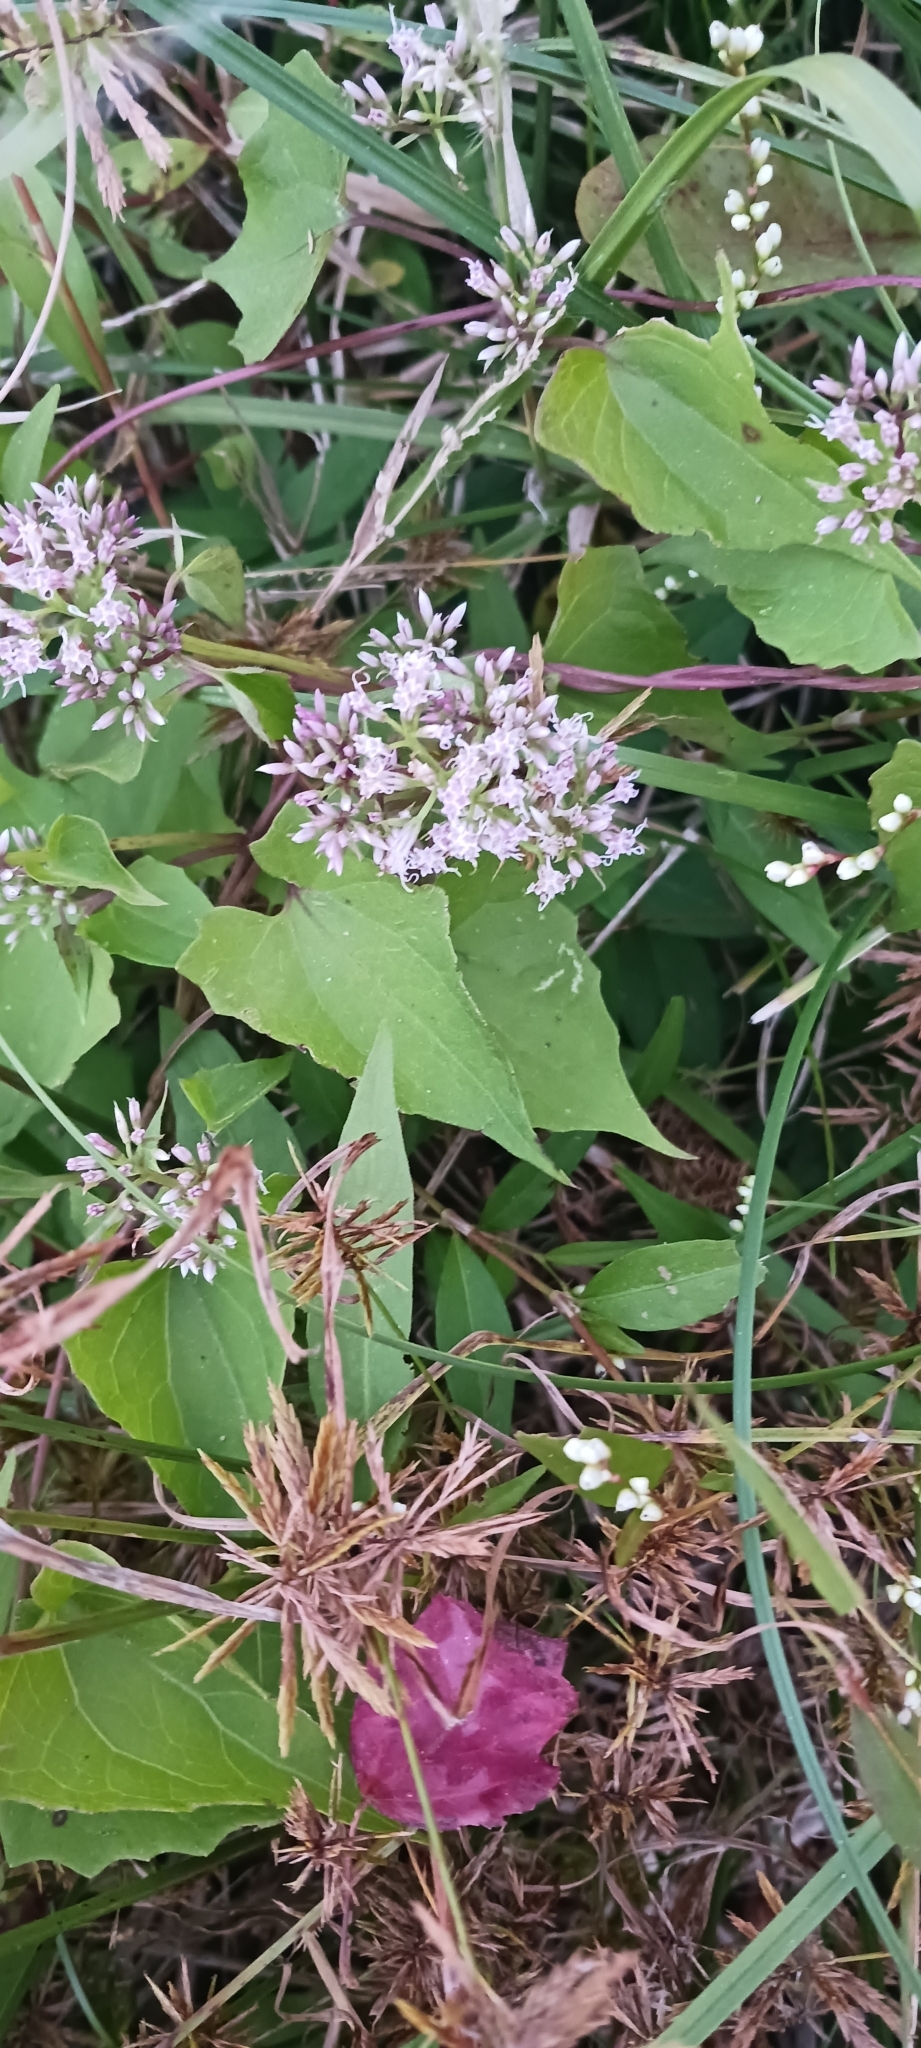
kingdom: Plantae
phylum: Tracheophyta
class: Magnoliopsida
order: Asterales
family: Asteraceae
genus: Mikania
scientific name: Mikania scandens
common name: Climbing hempvine
